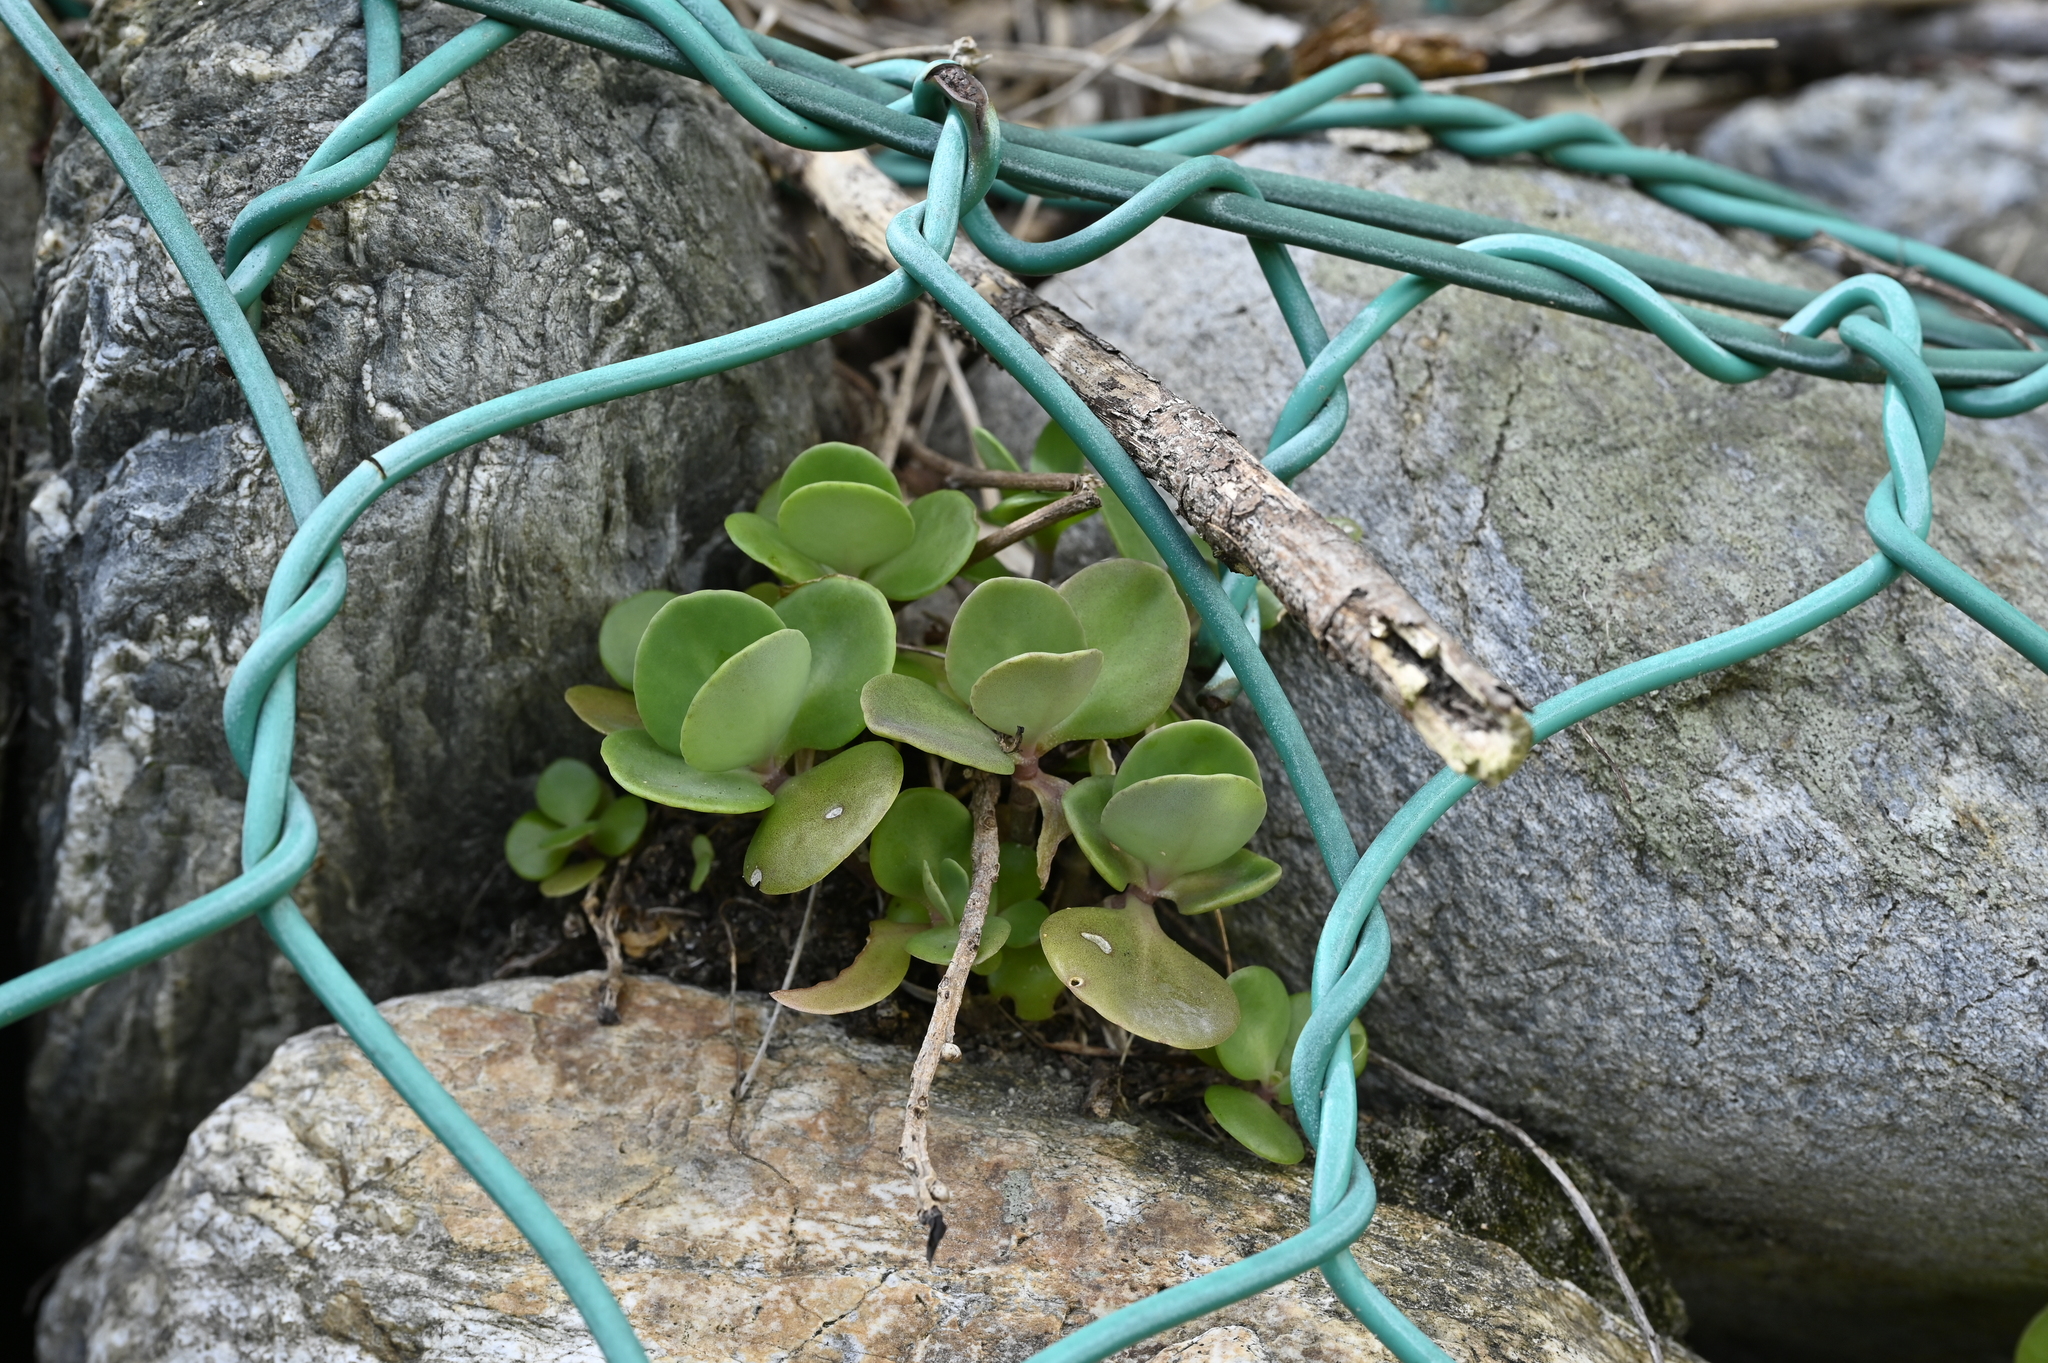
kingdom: Plantae
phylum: Tracheophyta
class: Magnoliopsida
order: Saxifragales
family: Crassulaceae
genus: Kalanchoe
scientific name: Kalanchoe tashiroi
